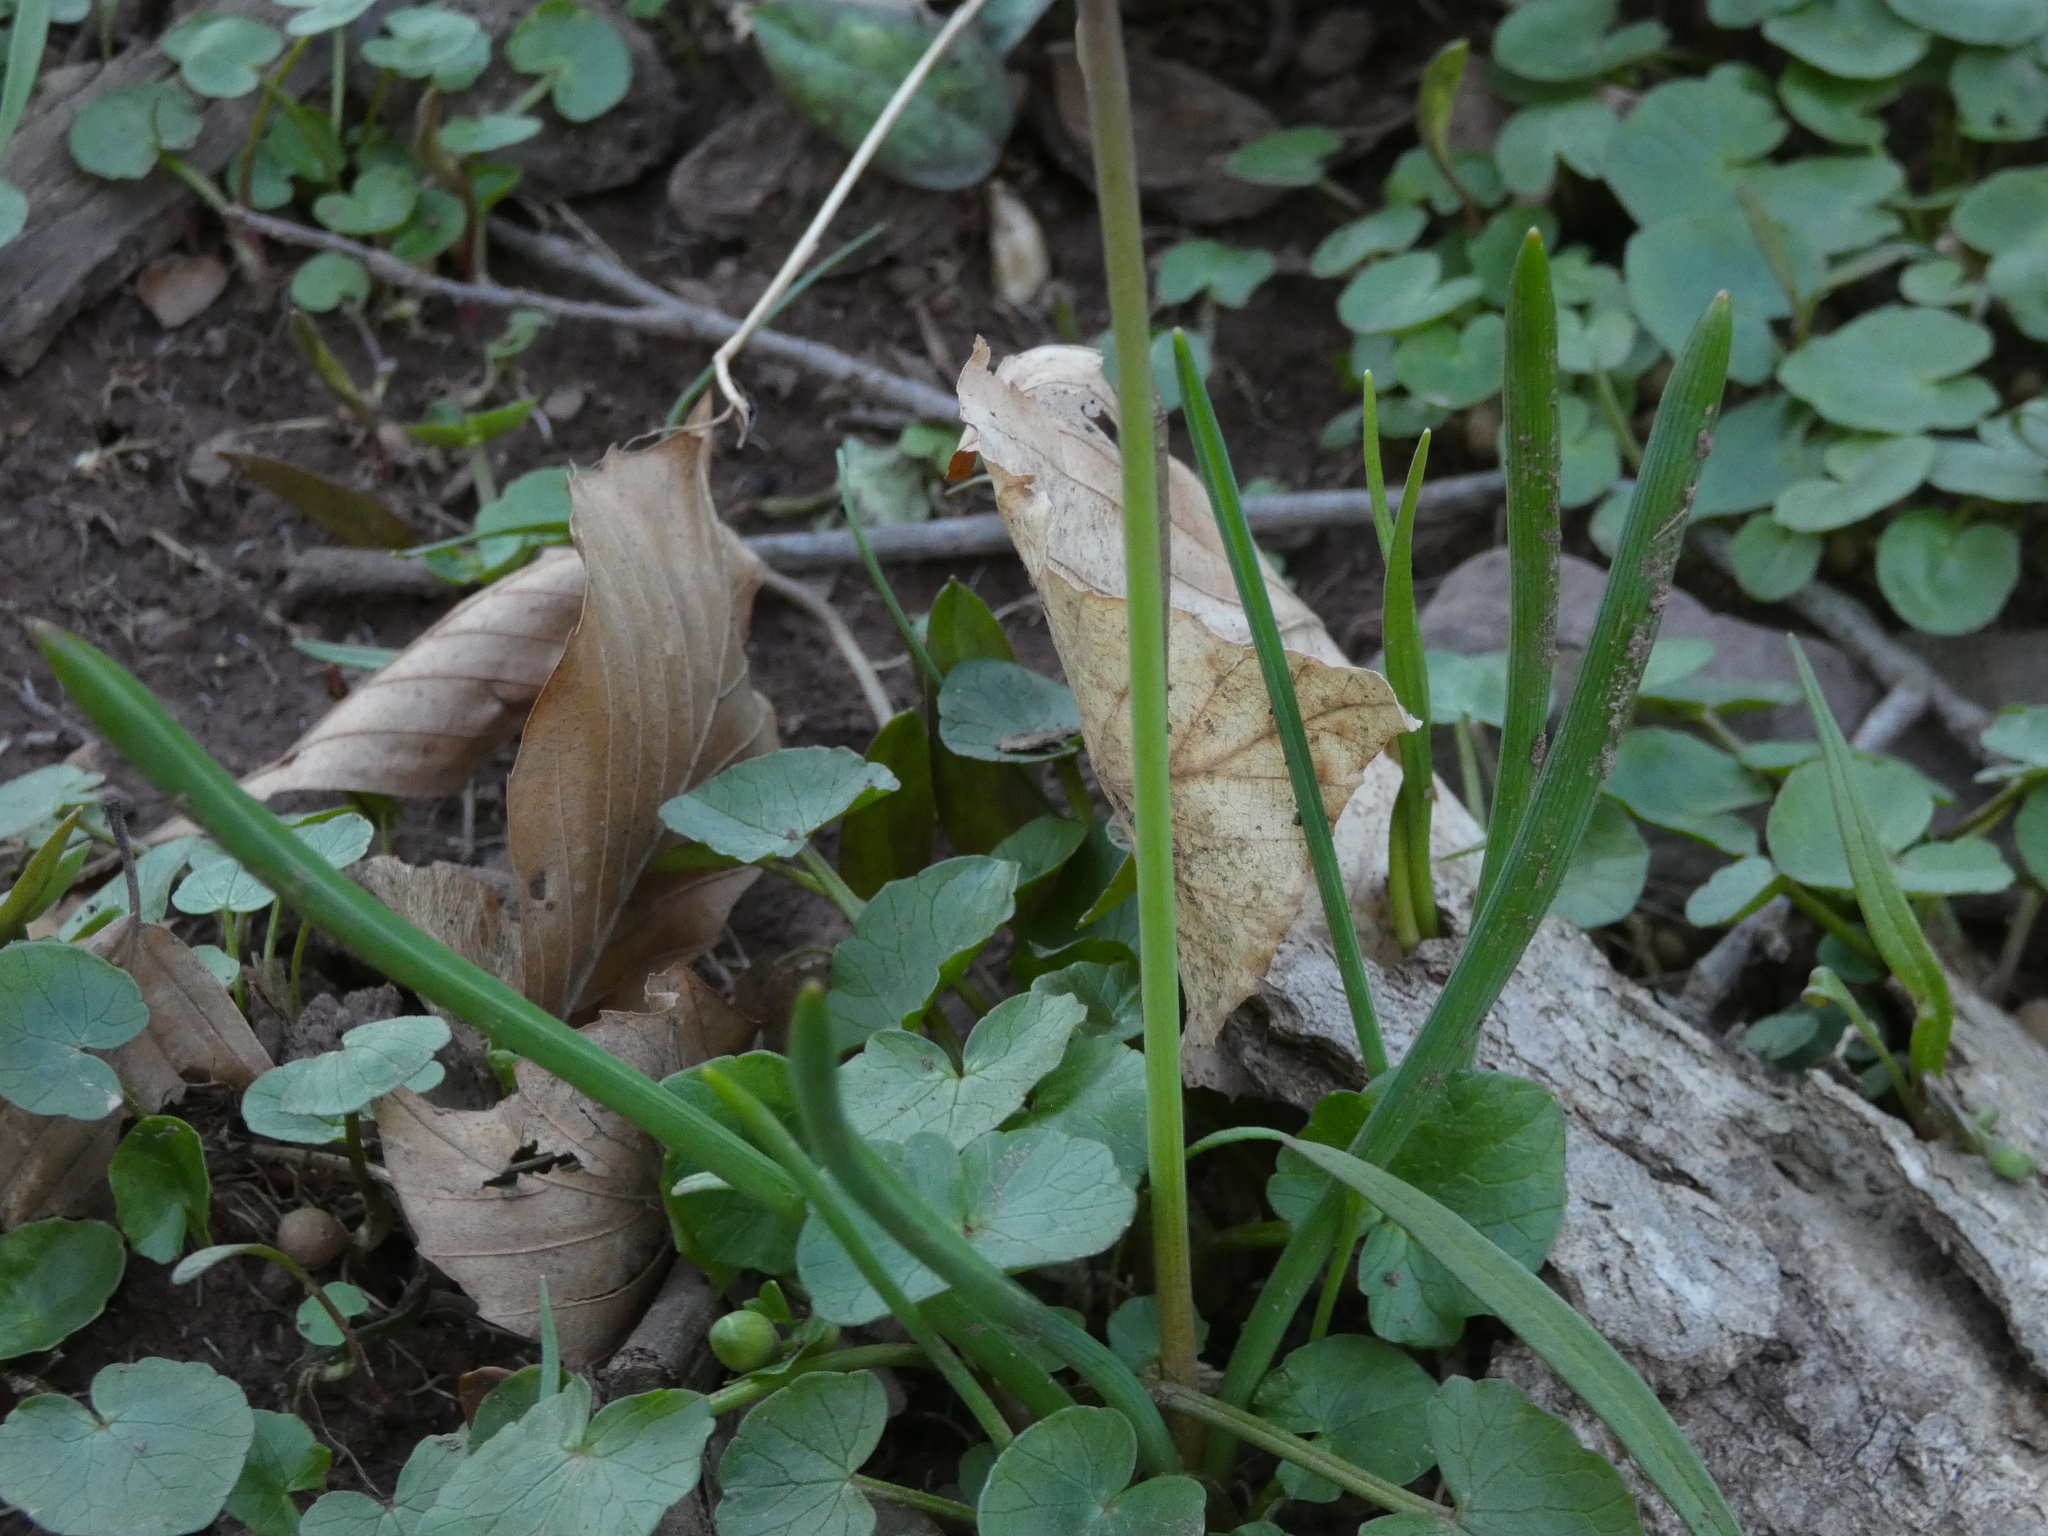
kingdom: Plantae
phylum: Tracheophyta
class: Liliopsida
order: Asparagales
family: Asparagaceae
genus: Muscari
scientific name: Muscari botryoides
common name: Compact grape-hyacinth
